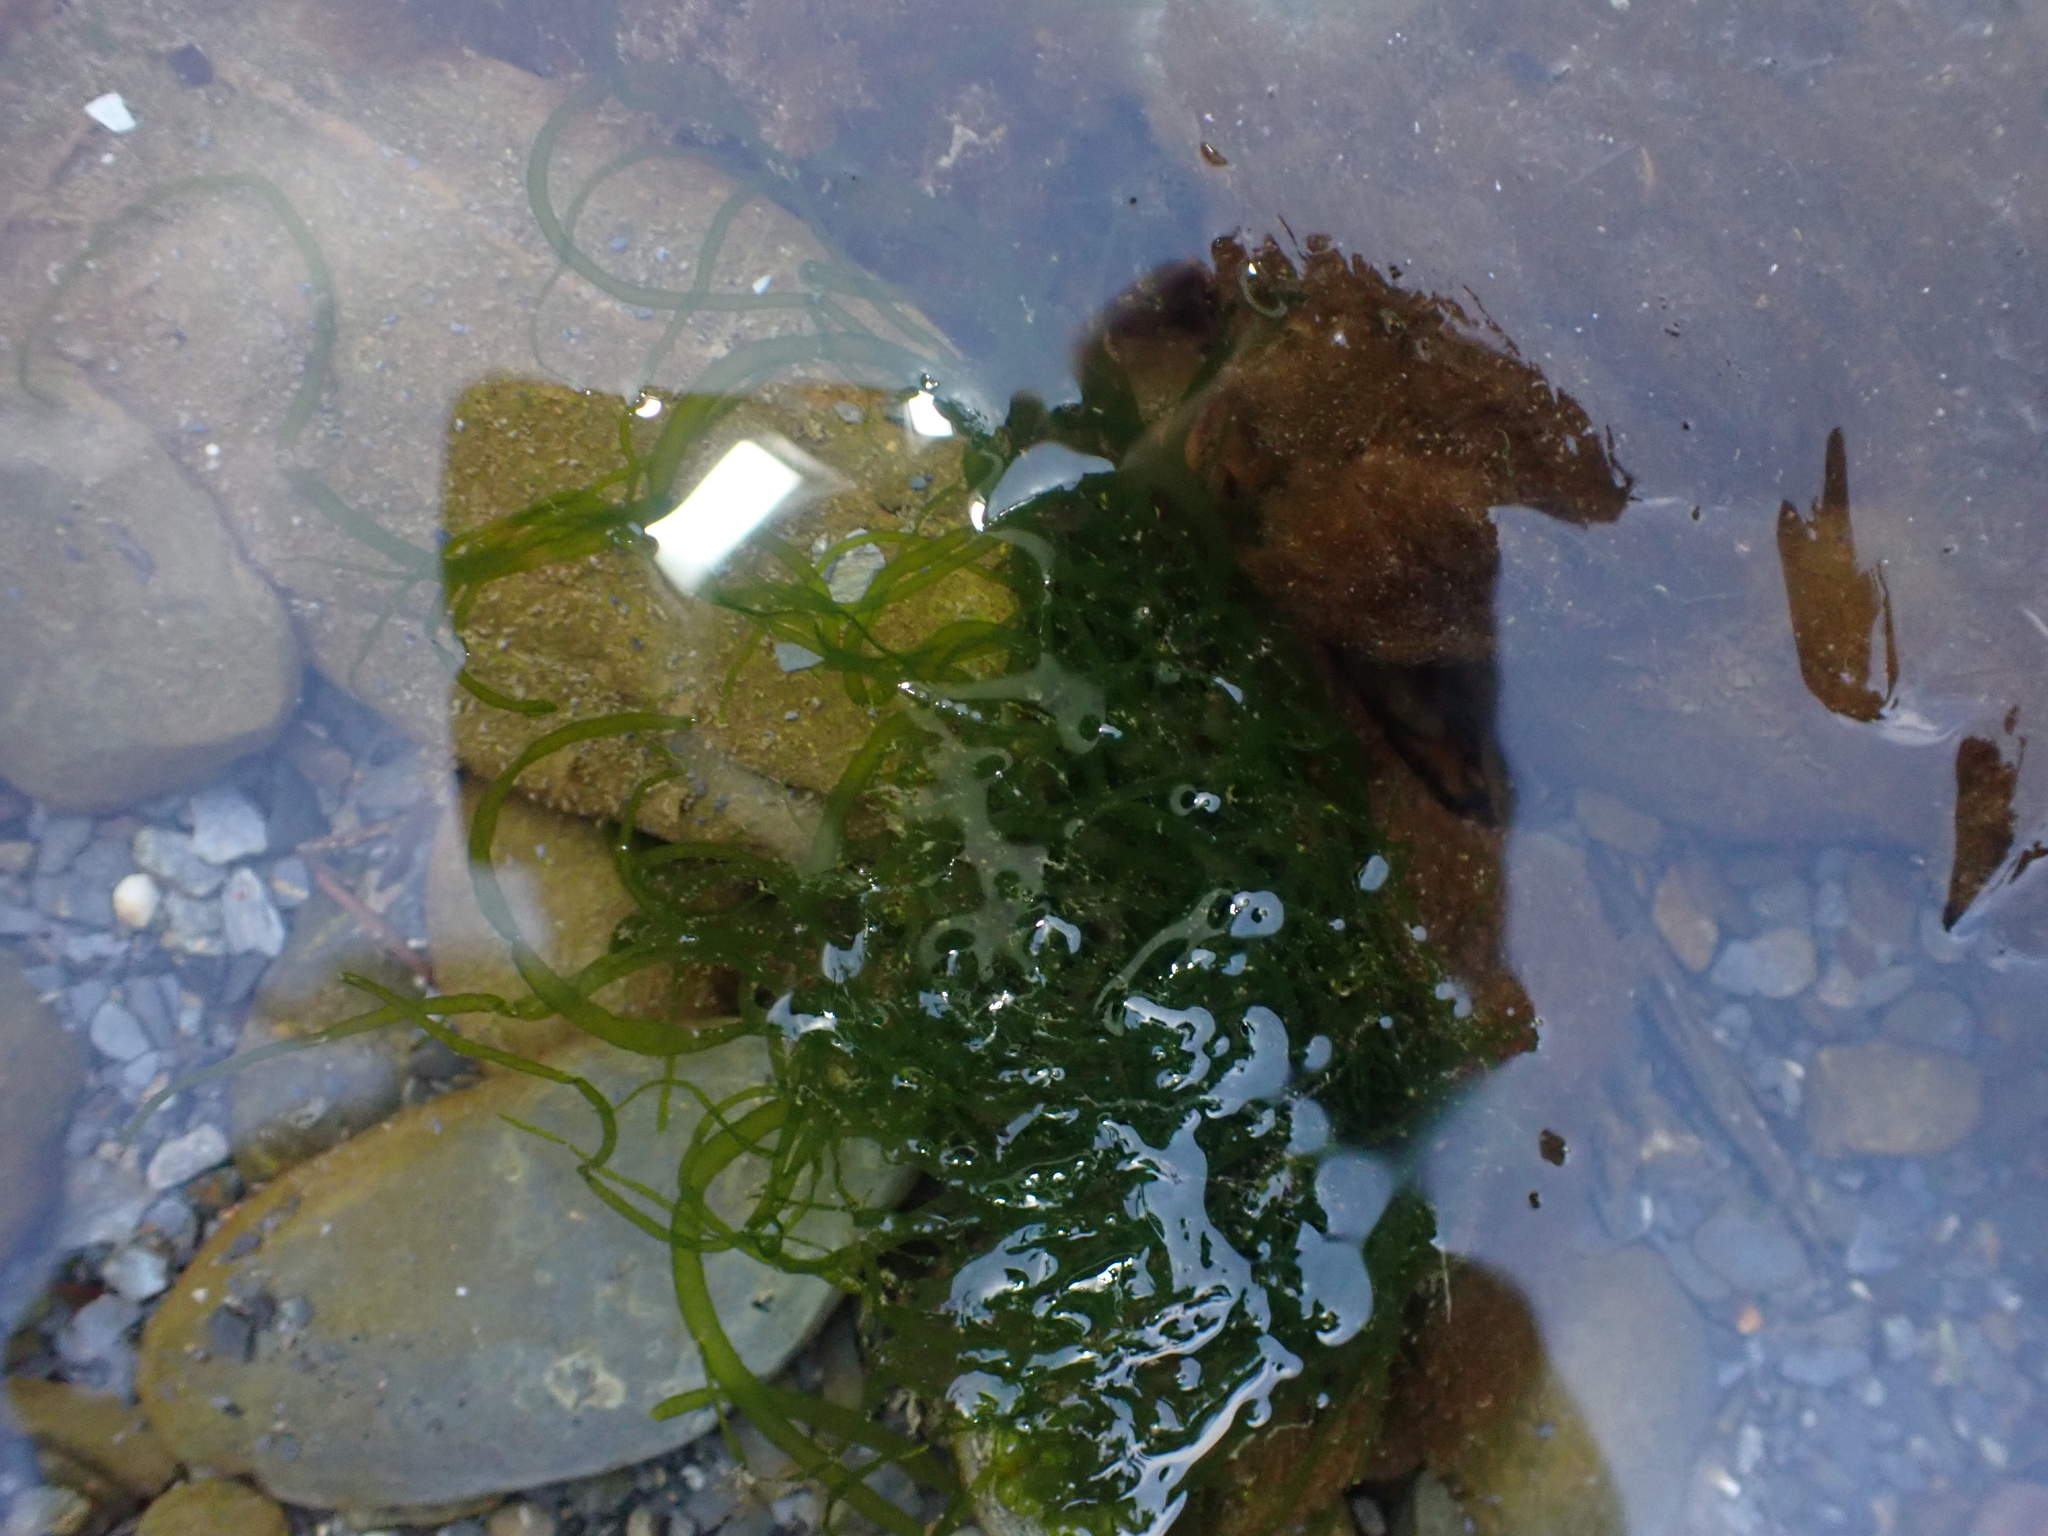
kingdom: Plantae
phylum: Chlorophyta
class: Ulvophyceae
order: Ulvales
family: Ulvaceae
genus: Ulva
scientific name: Ulva intestinalis
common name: Gut weed
